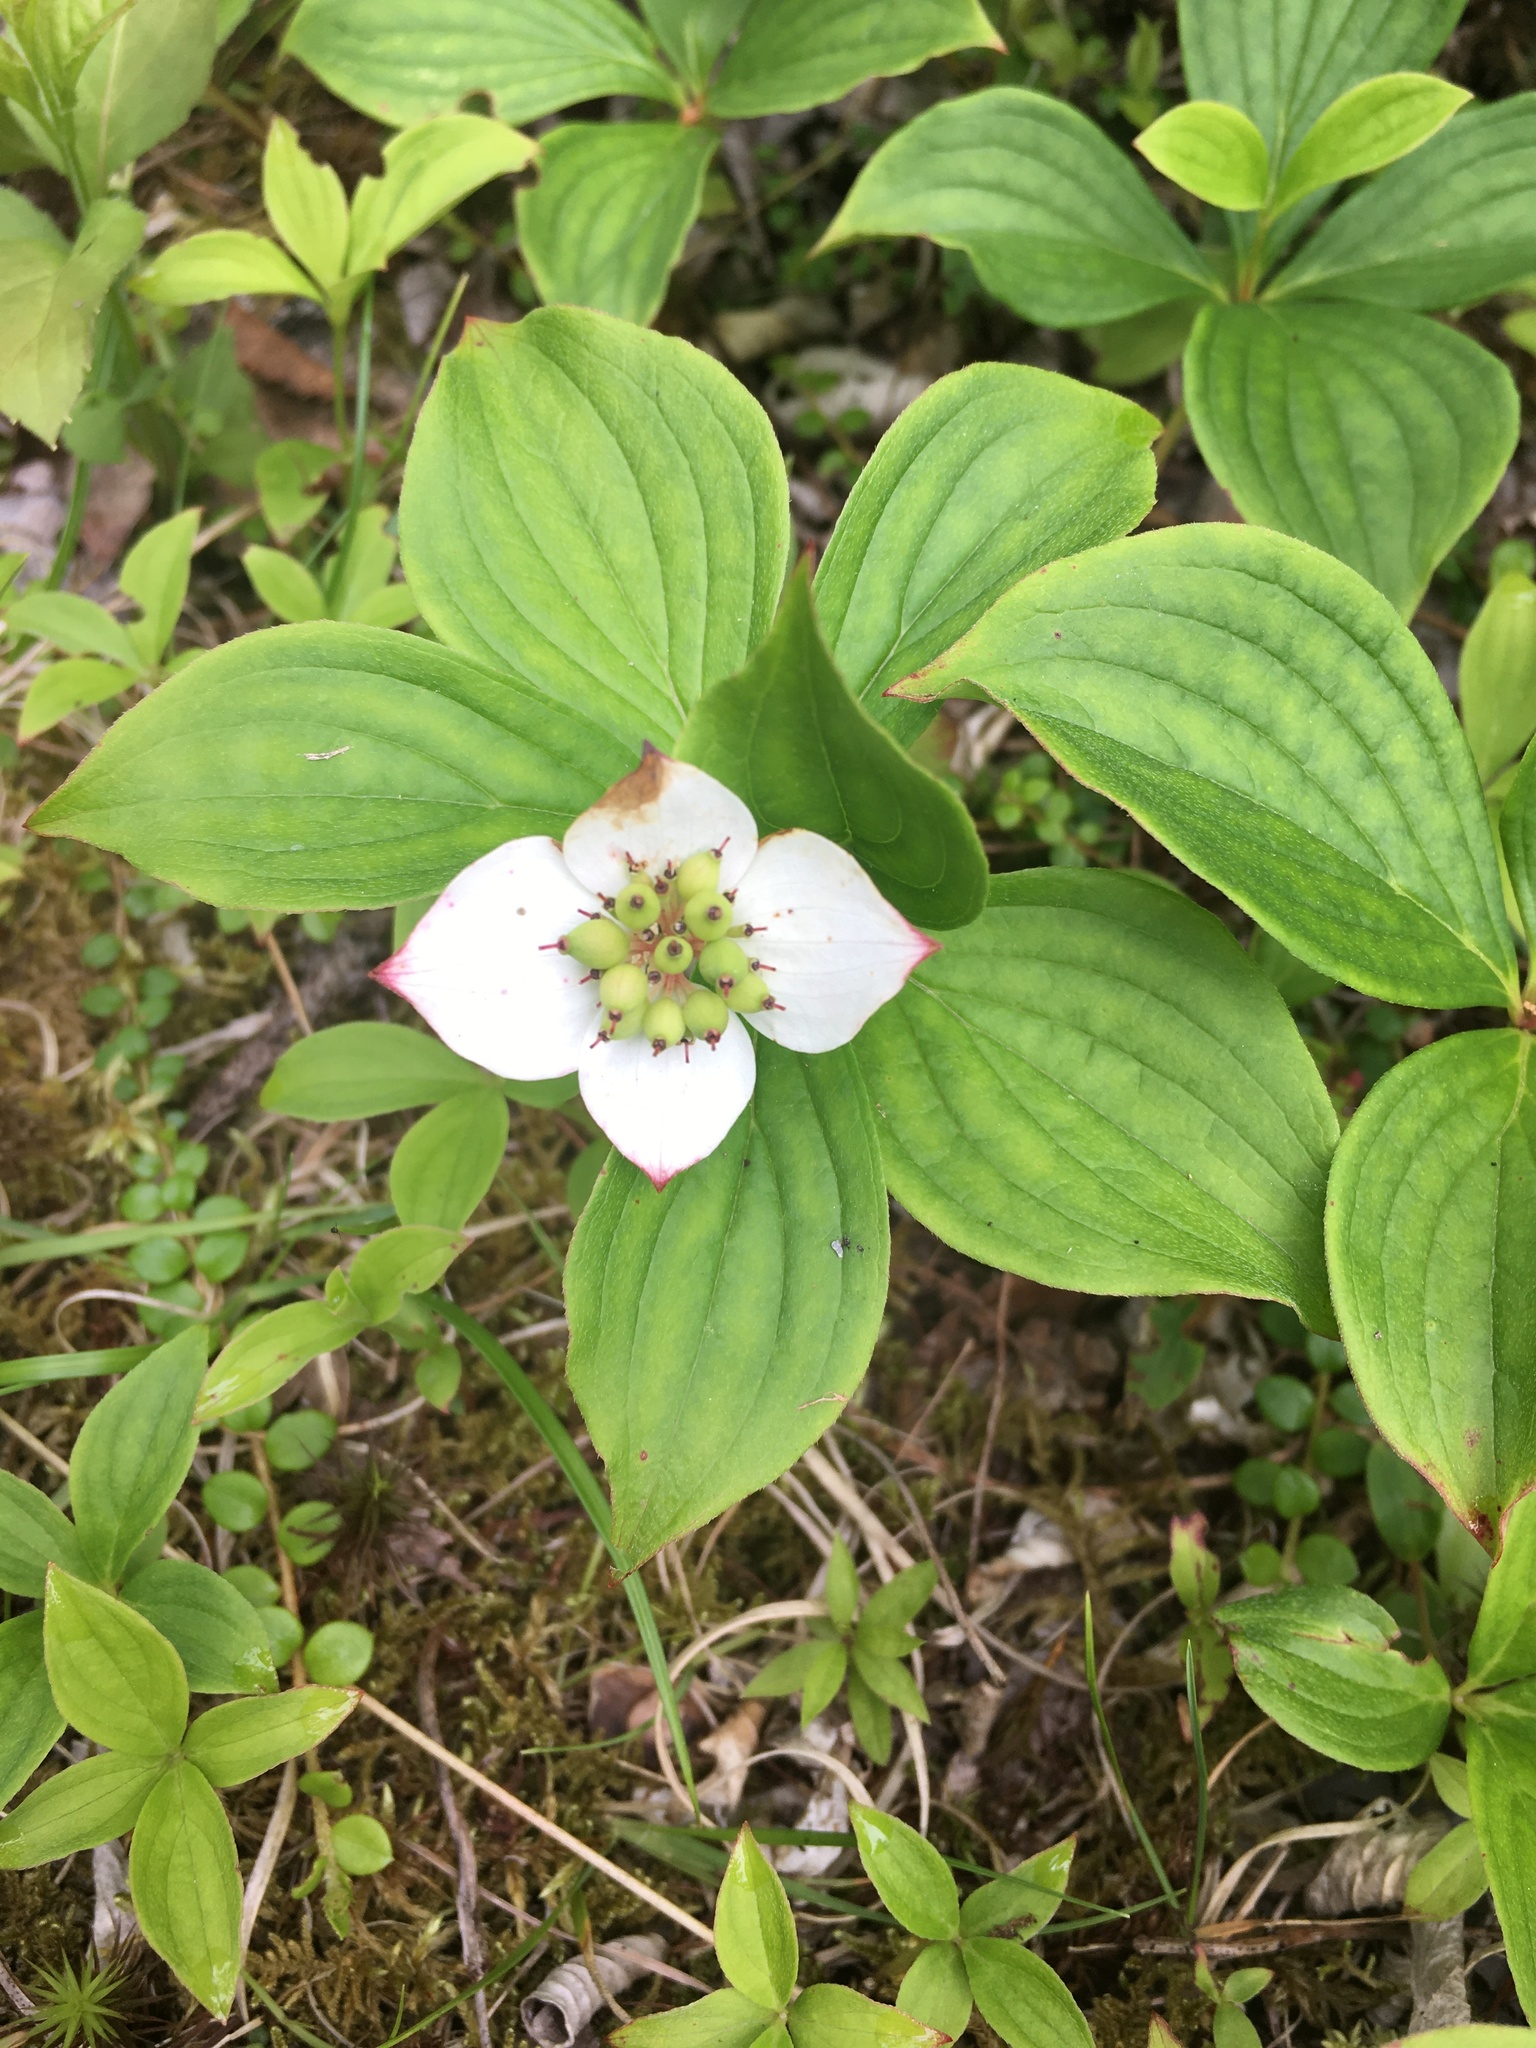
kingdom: Plantae
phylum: Tracheophyta
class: Magnoliopsida
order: Cornales
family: Cornaceae
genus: Cornus
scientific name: Cornus canadensis
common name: Creeping dogwood
